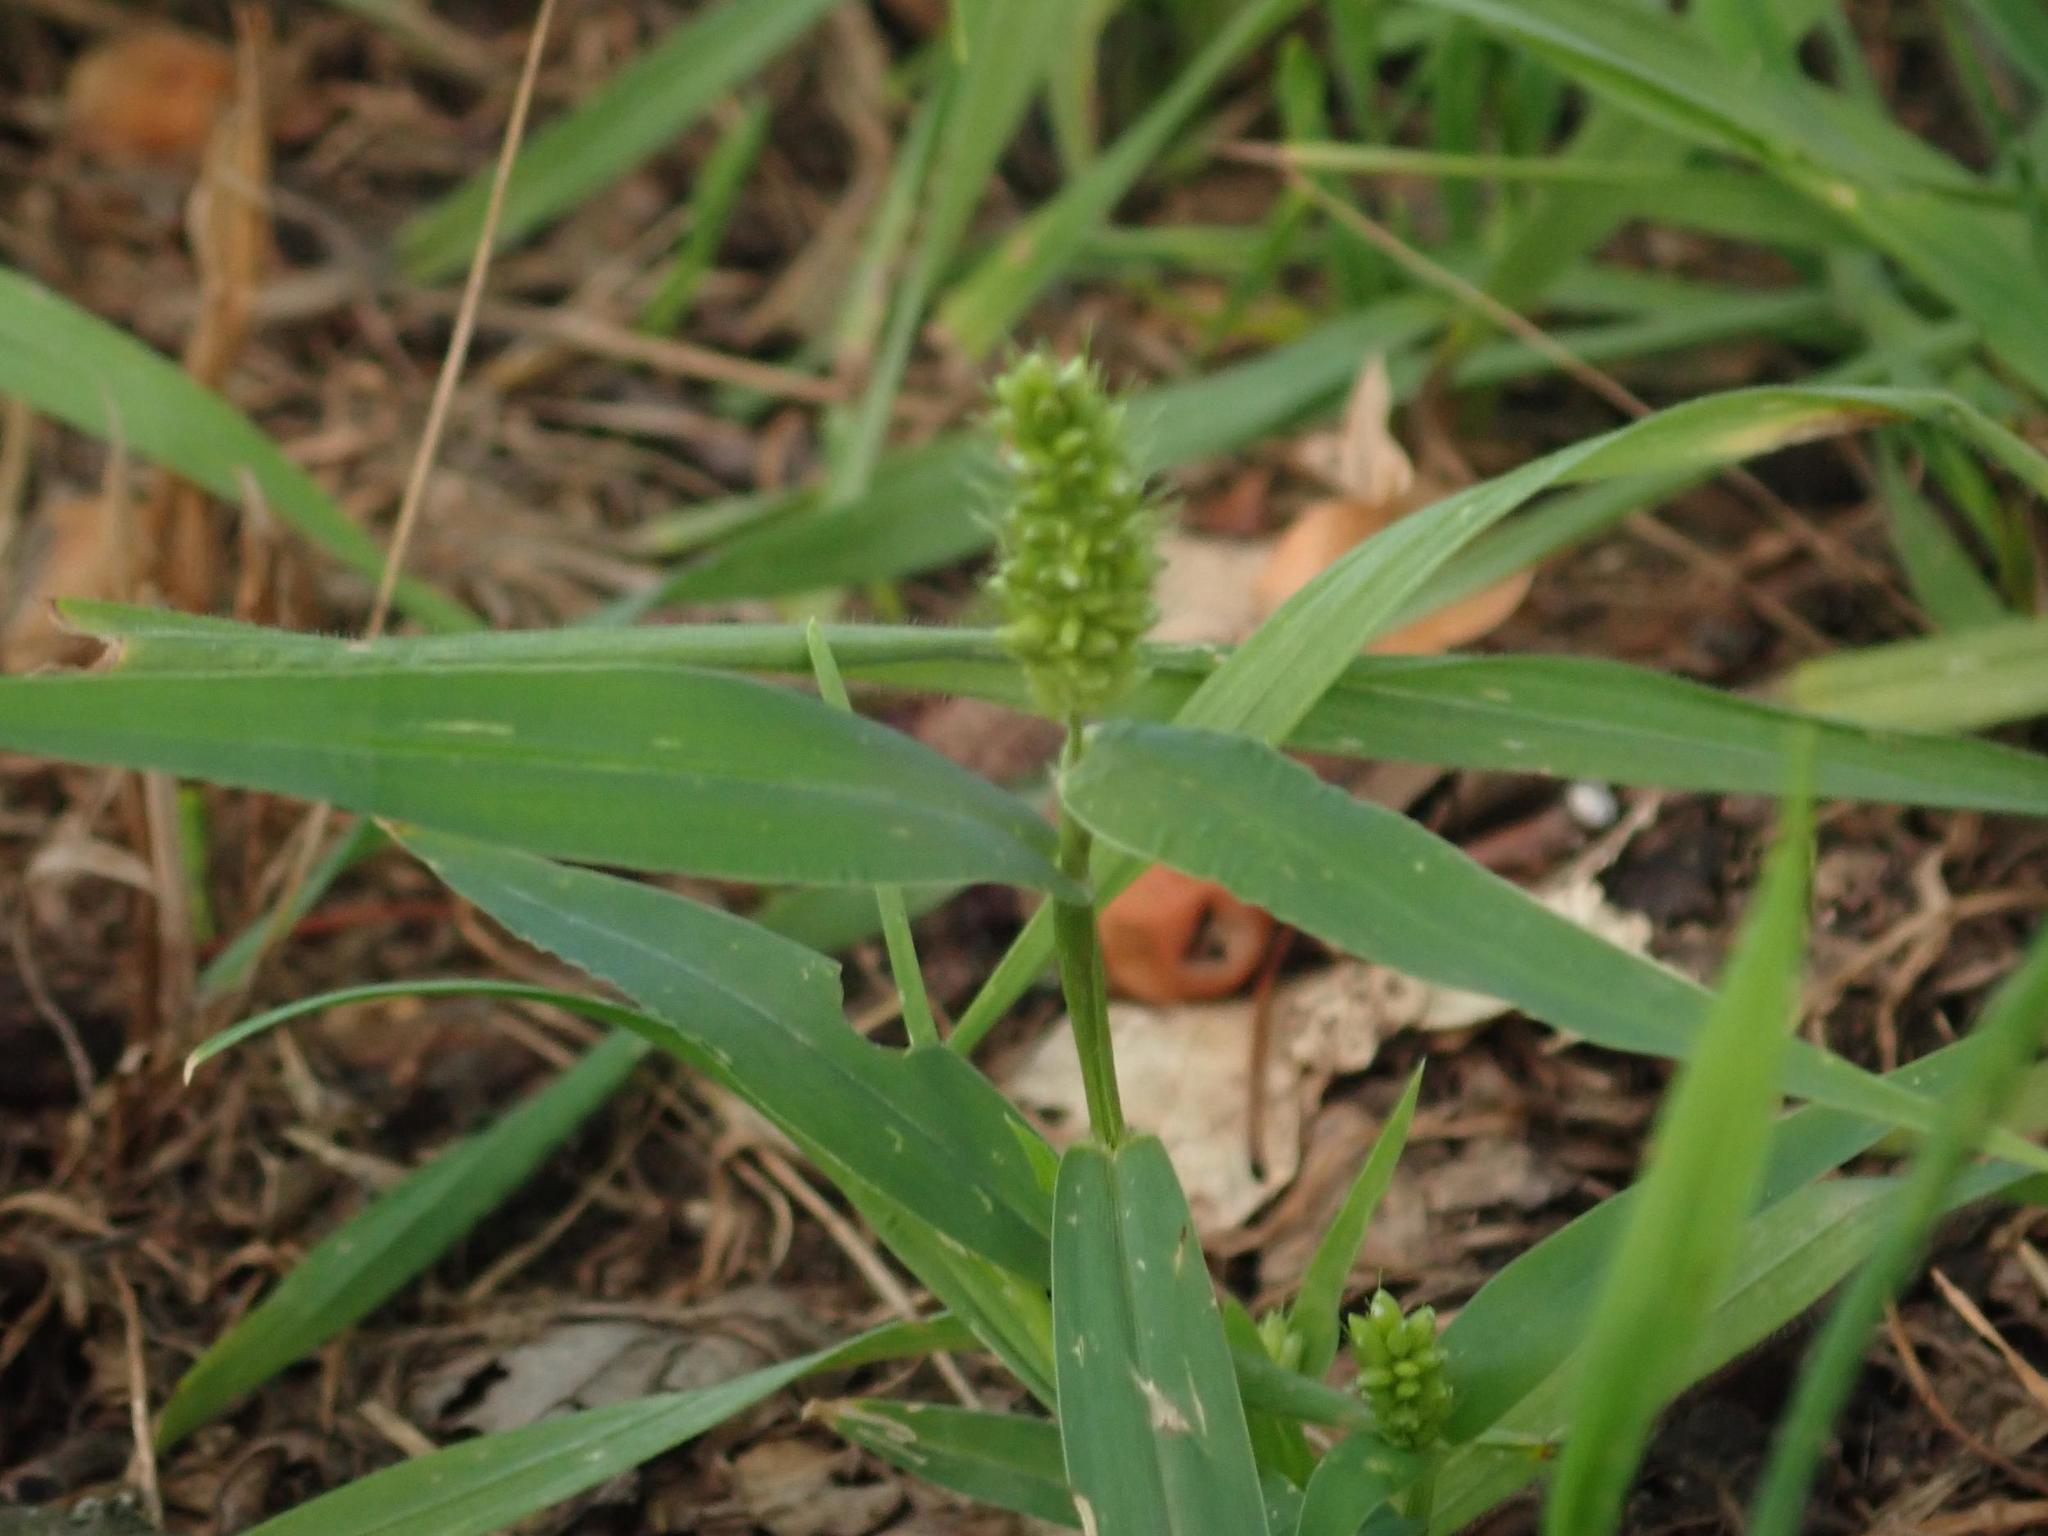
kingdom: Plantae
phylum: Tracheophyta
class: Liliopsida
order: Poales
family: Poaceae
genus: Setaria
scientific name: Setaria viridis
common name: Green bristlegrass
